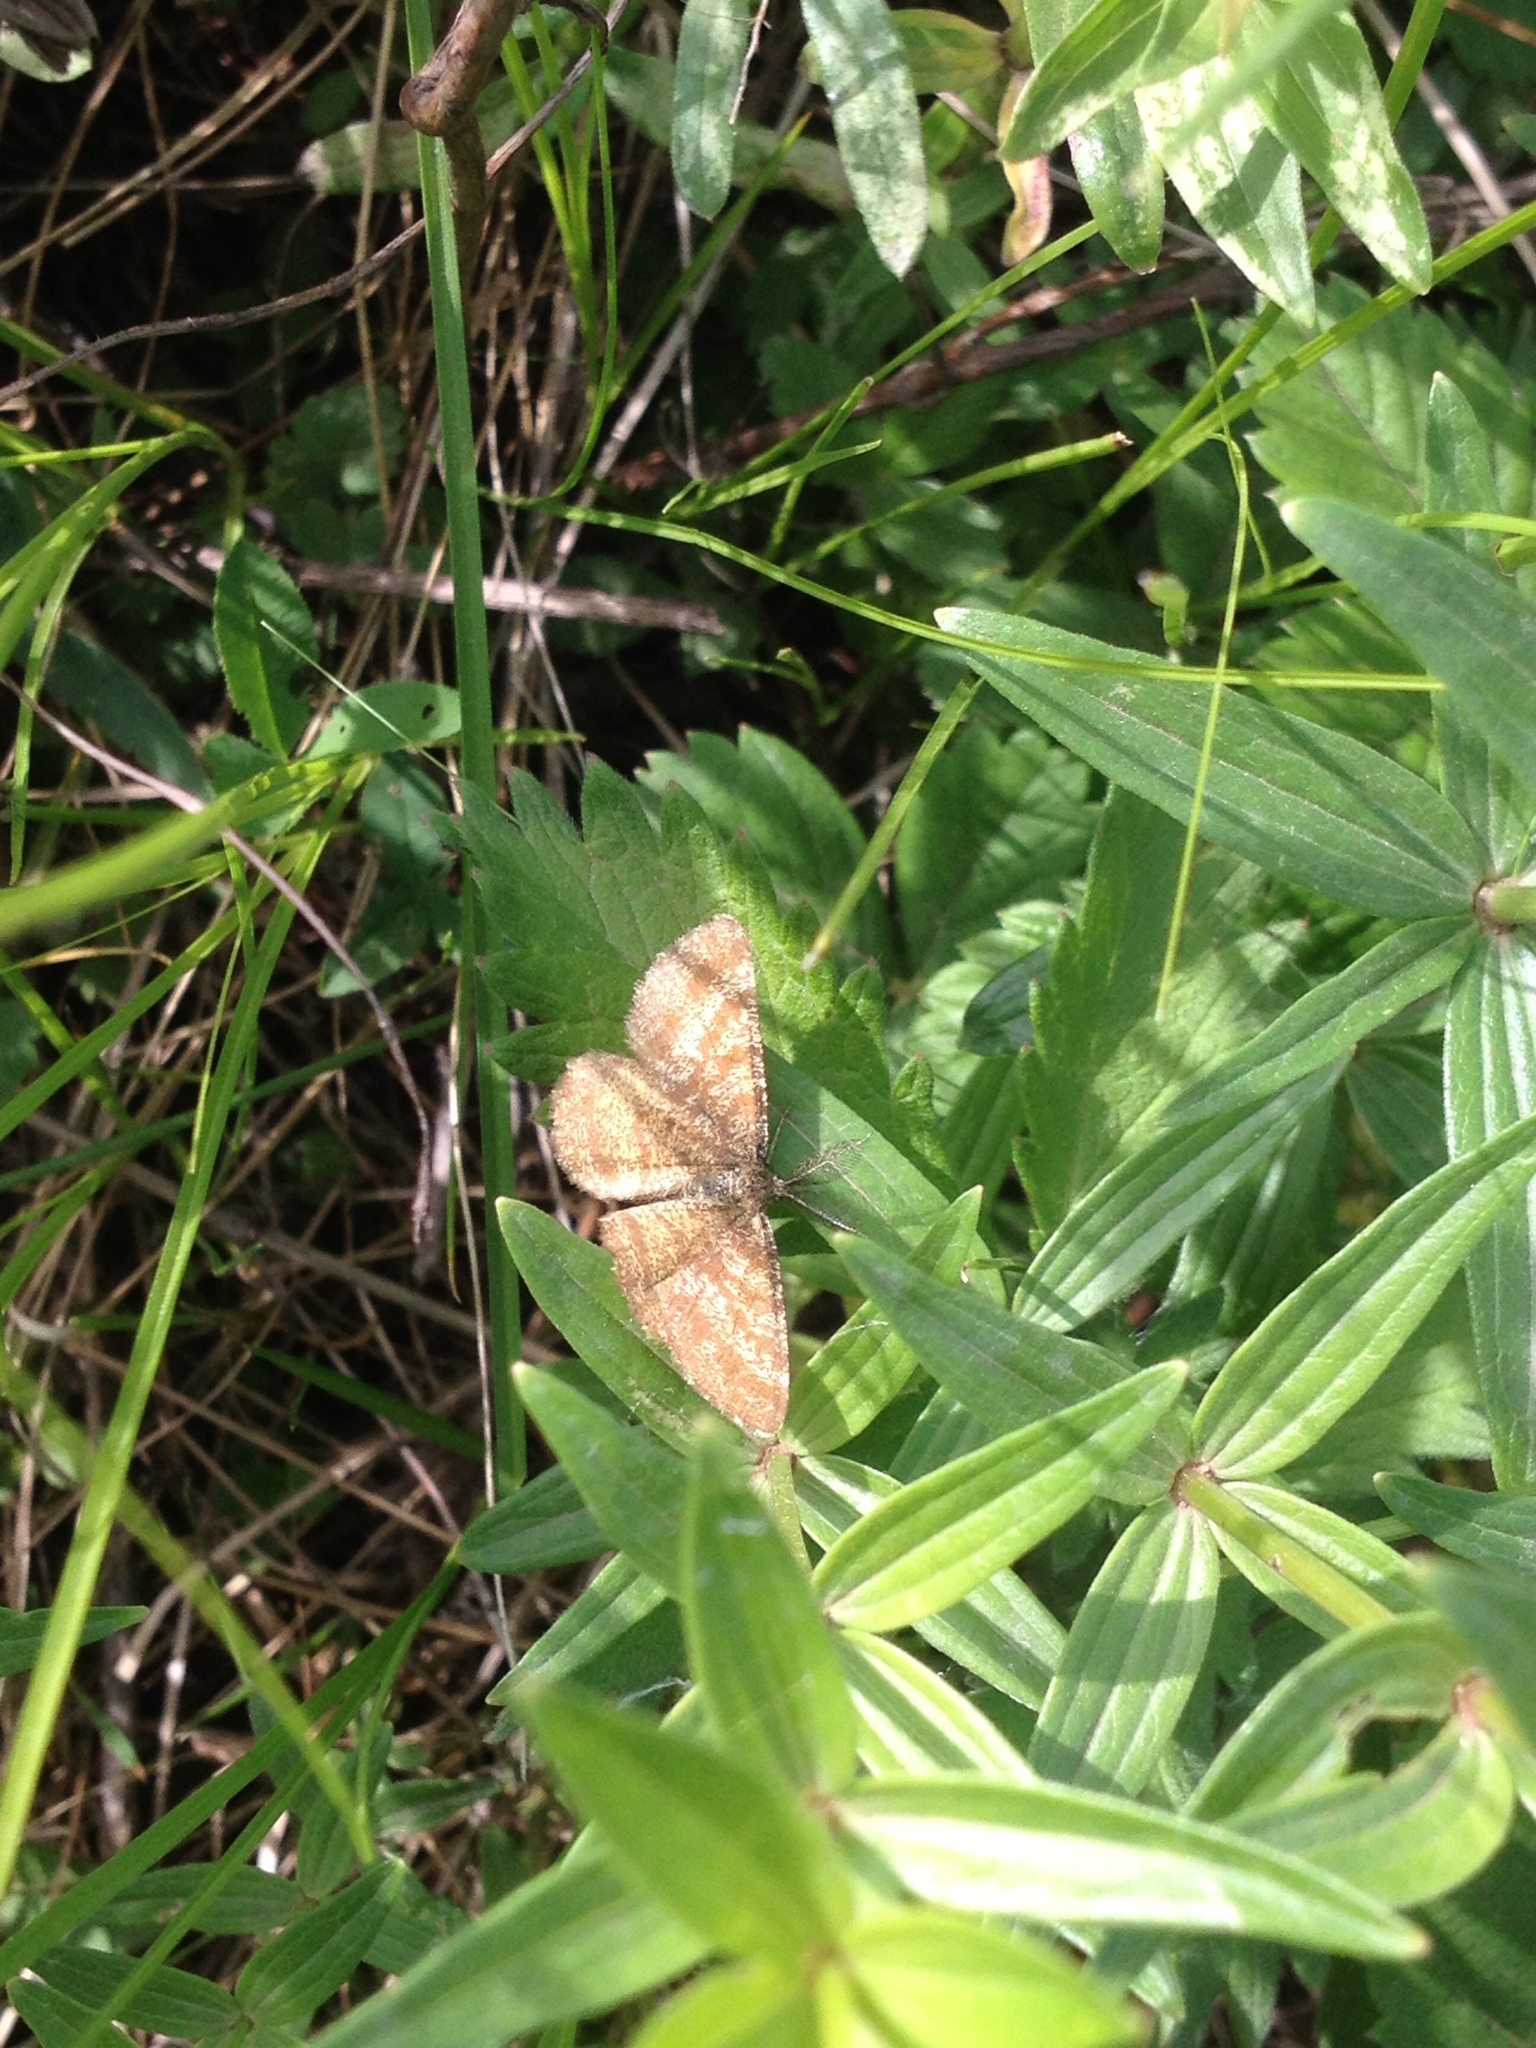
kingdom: Animalia
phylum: Arthropoda
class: Insecta
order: Lepidoptera
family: Geometridae
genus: Ematurga
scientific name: Ematurga atomaria
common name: Common heath
